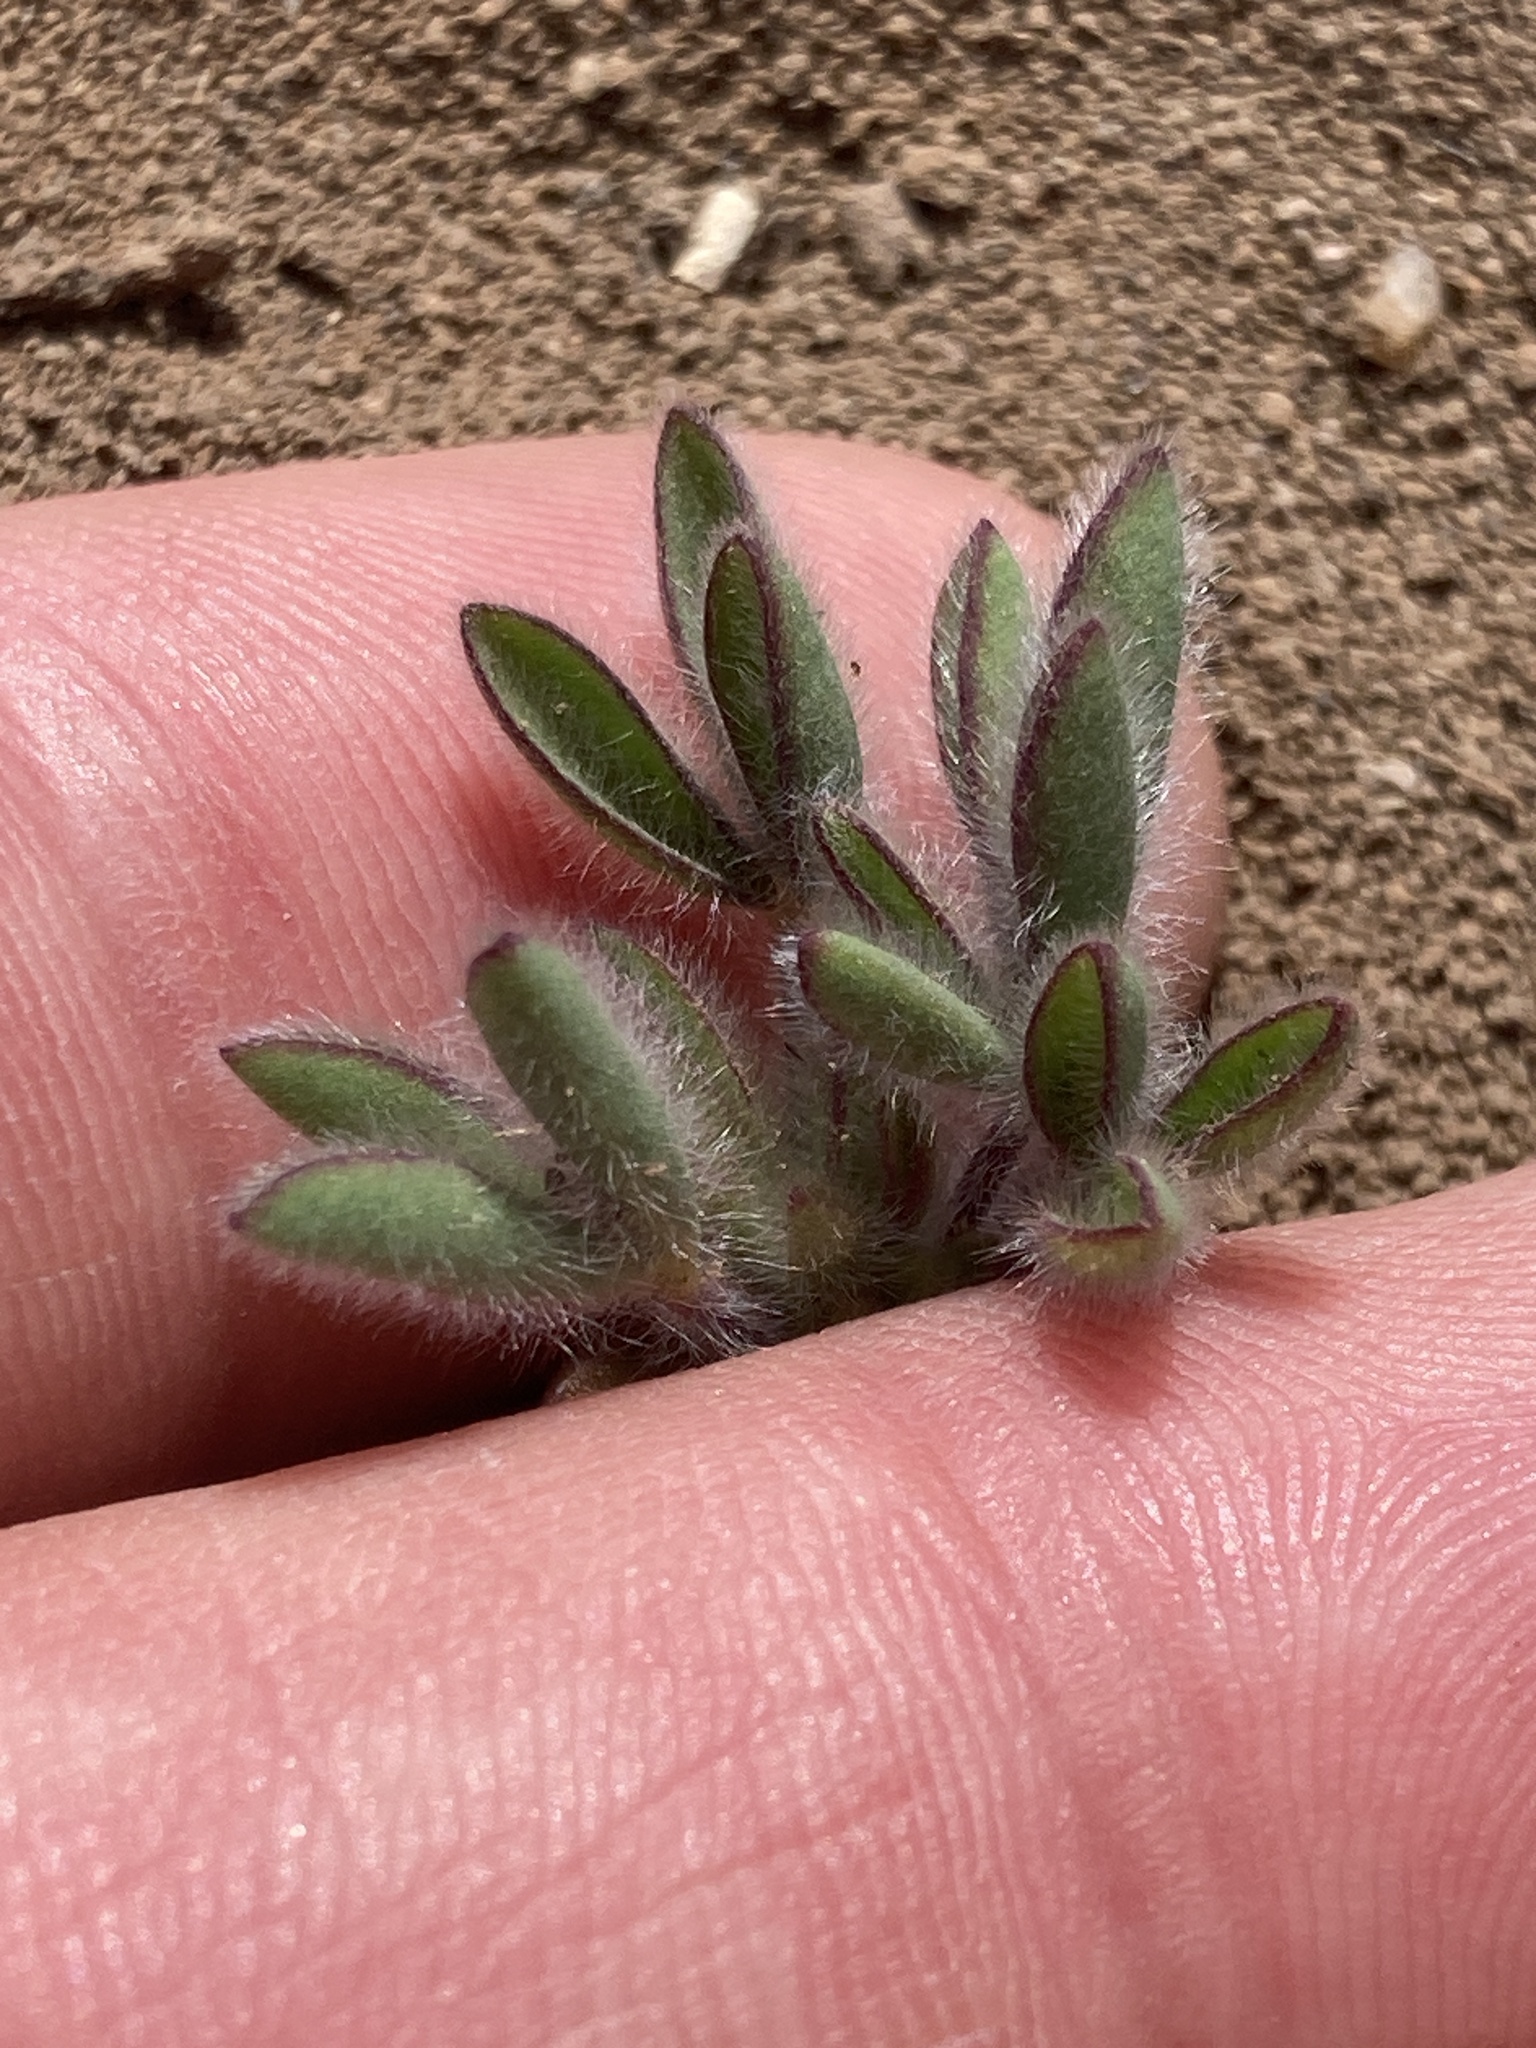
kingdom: Plantae
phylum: Tracheophyta
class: Magnoliopsida
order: Fabales
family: Fabaceae
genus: Lupinus
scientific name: Lupinus malacophyllus
